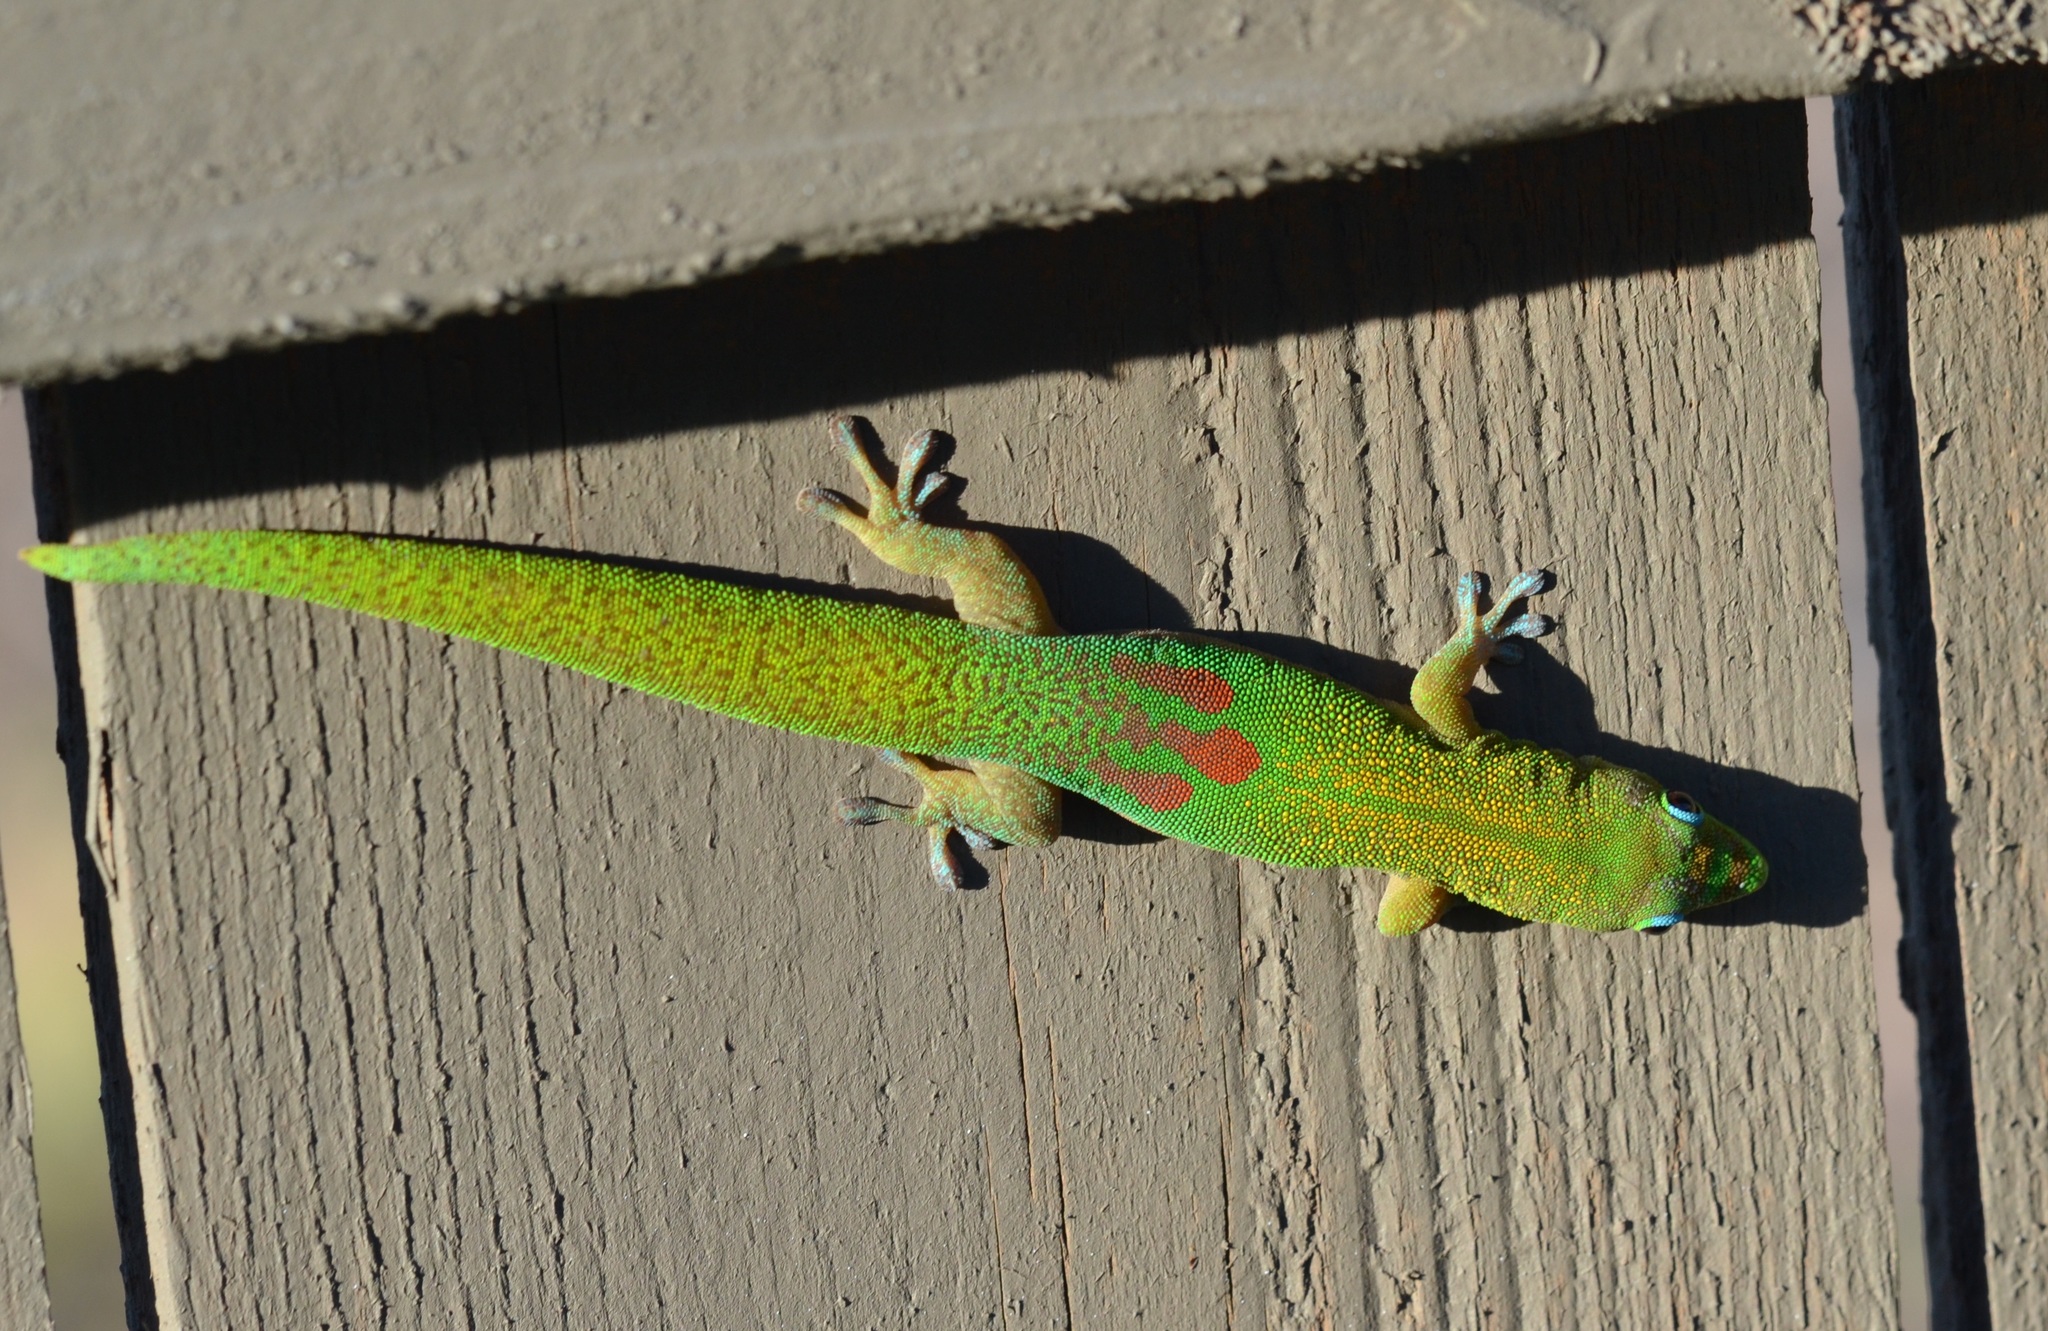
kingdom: Animalia
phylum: Chordata
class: Squamata
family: Gekkonidae
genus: Phelsuma
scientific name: Phelsuma laticauda
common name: Gold dust day gecko
